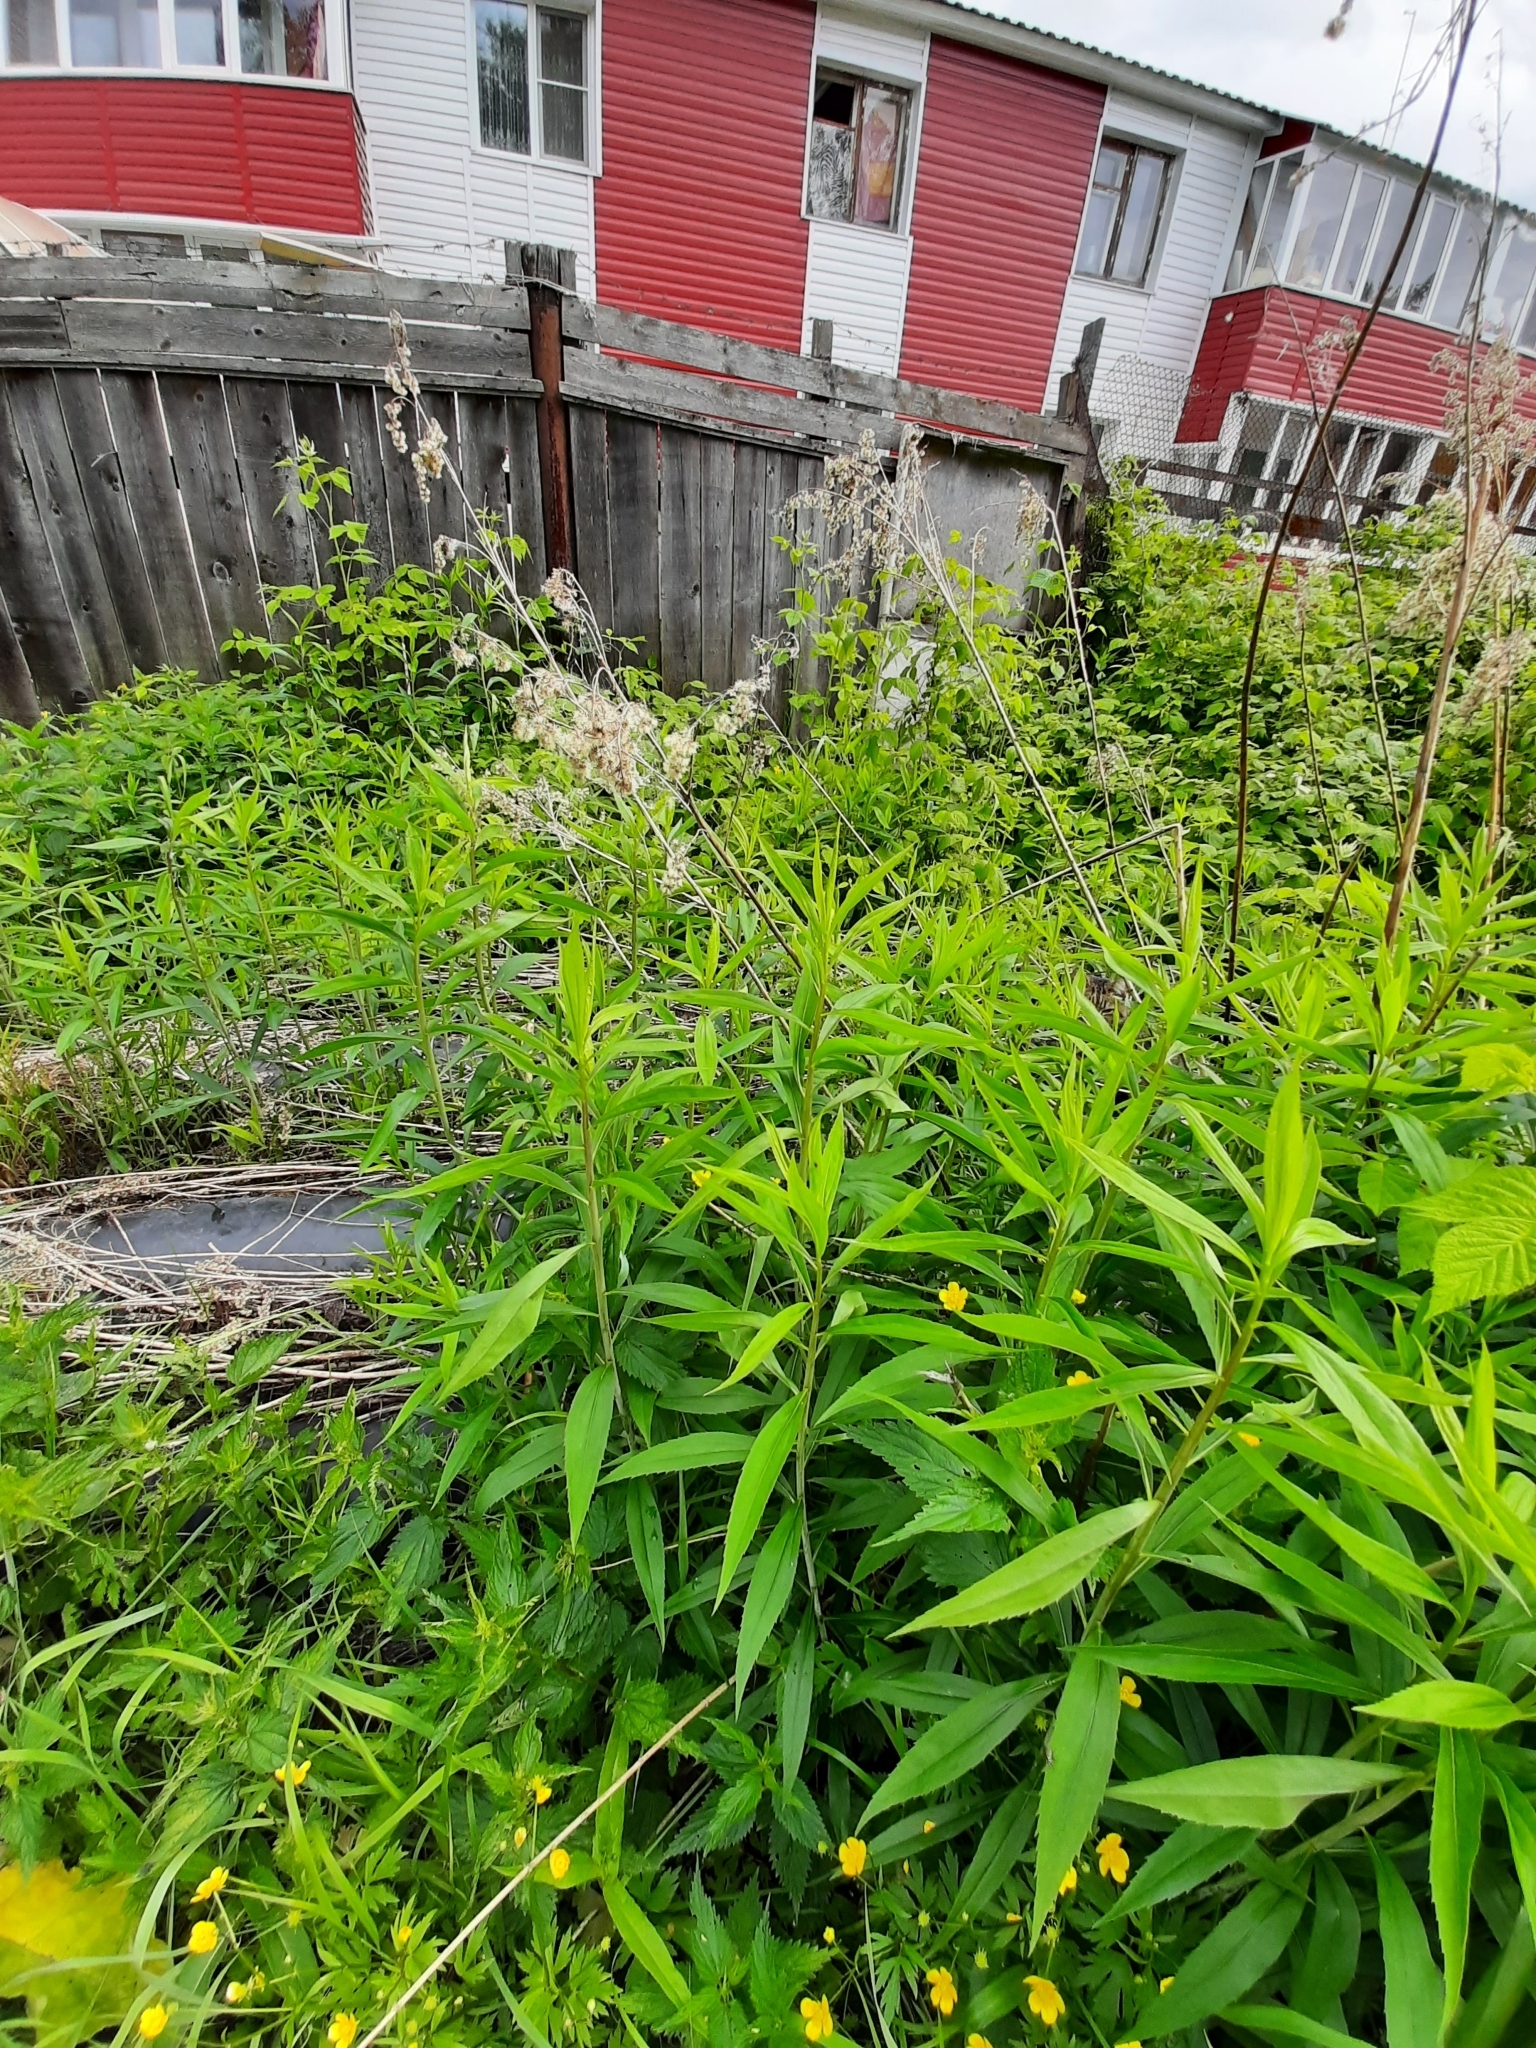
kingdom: Plantae
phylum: Tracheophyta
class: Magnoliopsida
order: Asterales
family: Asteraceae
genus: Solidago
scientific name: Solidago gigantea
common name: Giant goldenrod
